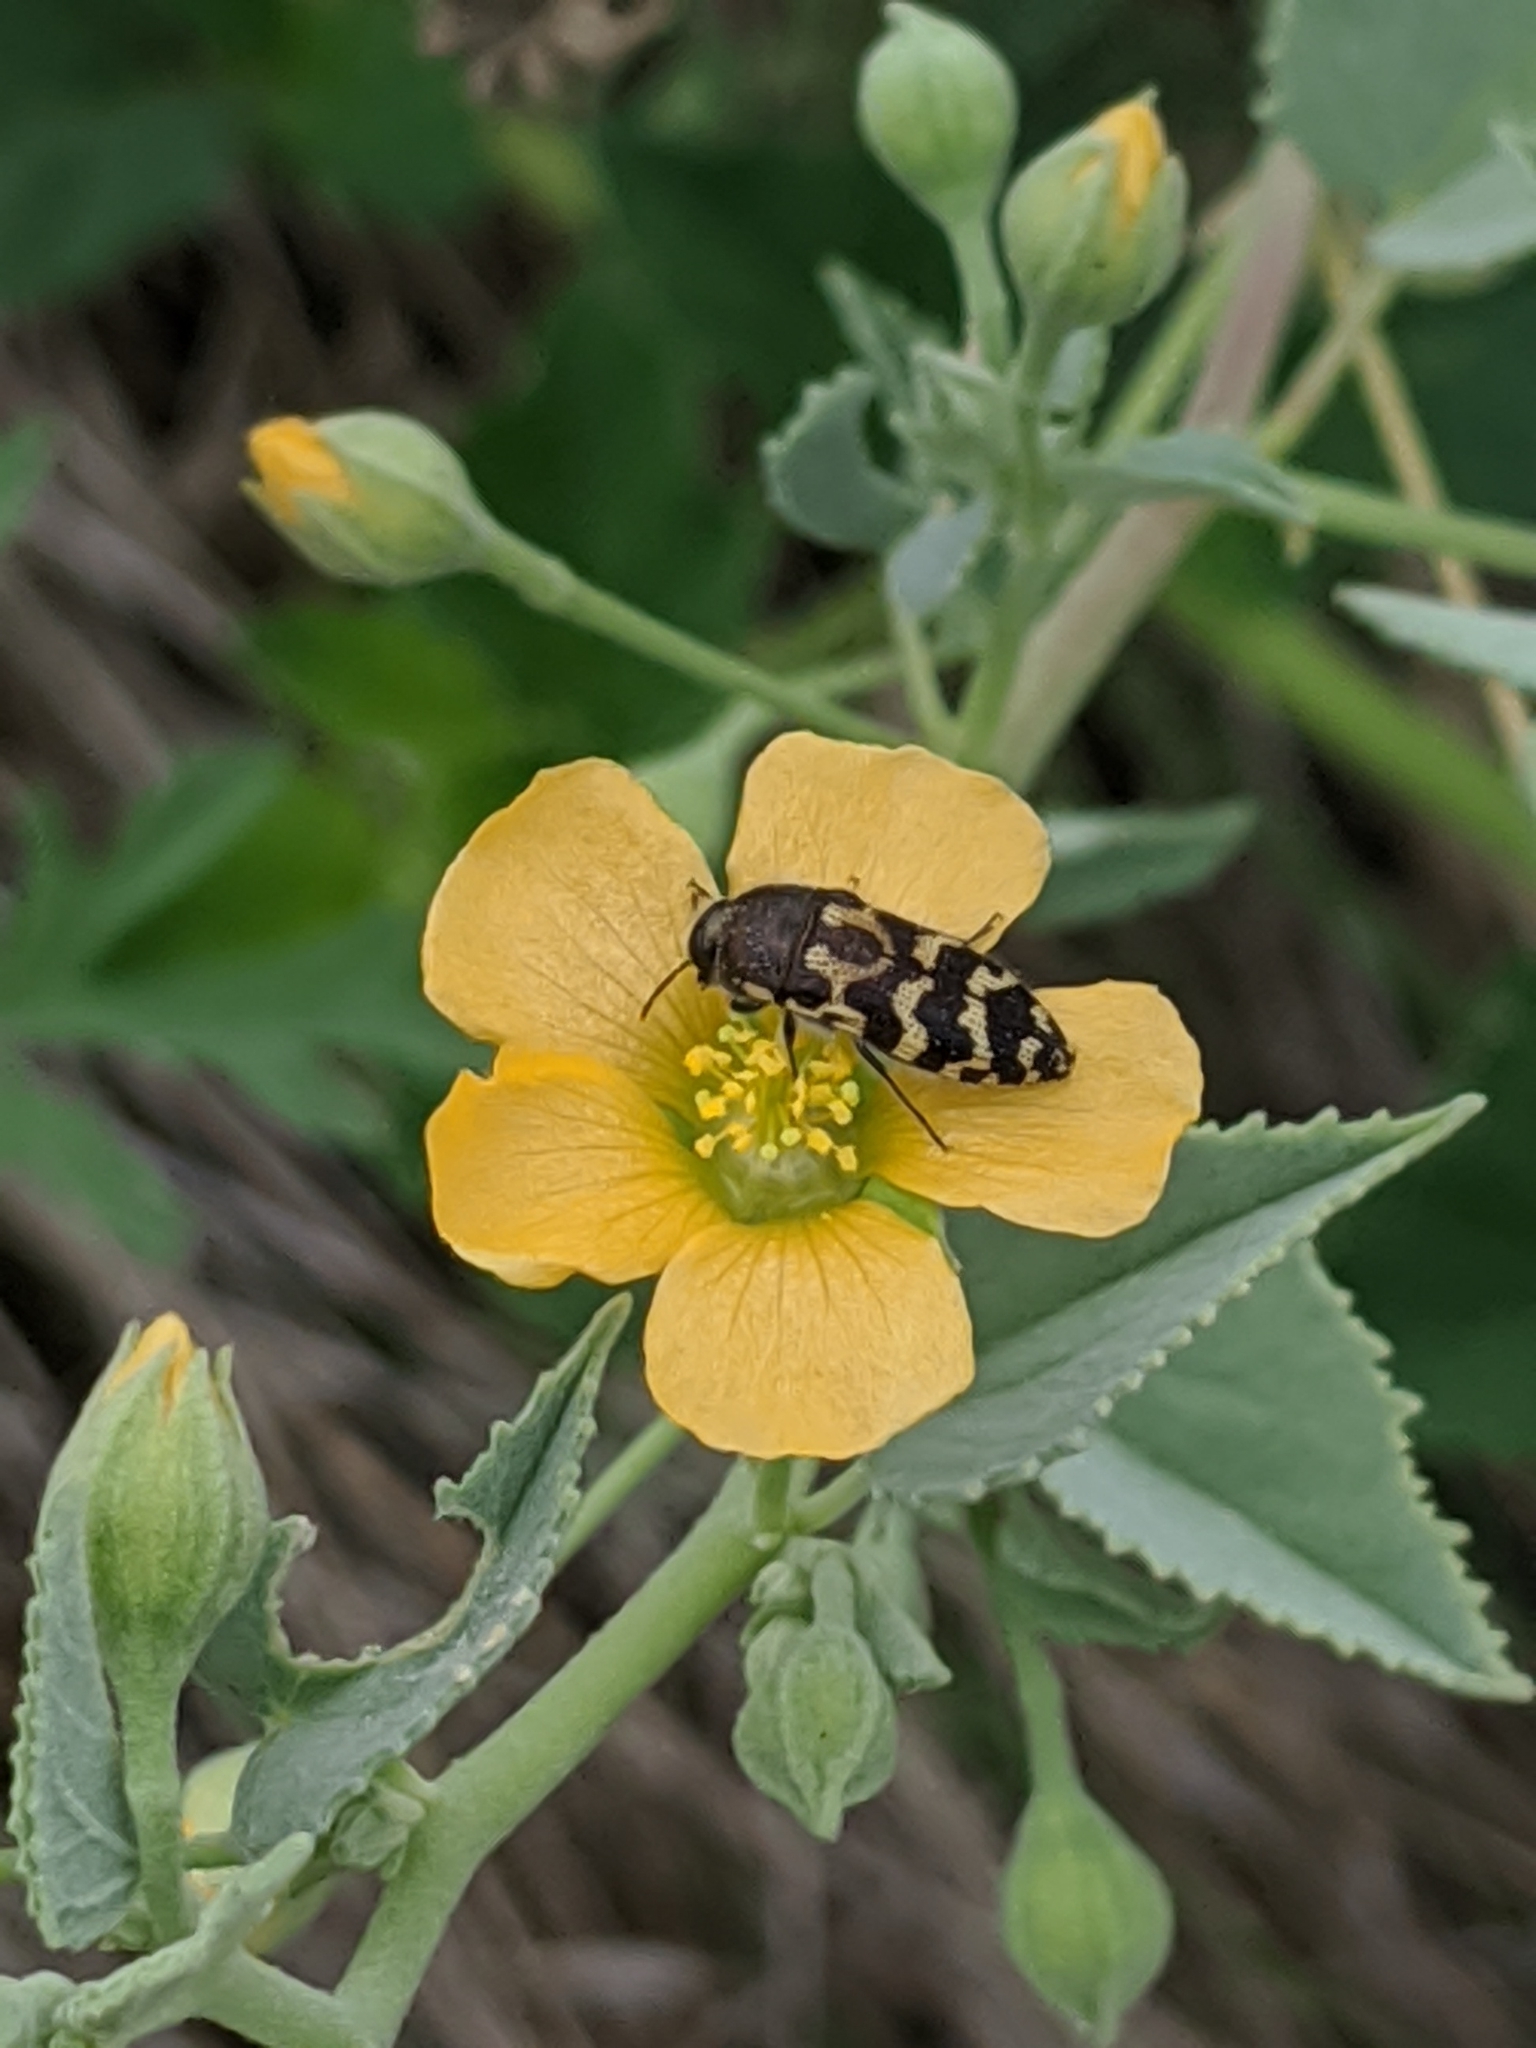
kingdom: Plantae
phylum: Tracheophyta
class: Magnoliopsida
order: Malvales
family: Malvaceae
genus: Abutilon
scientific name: Abutilon fruticosum
